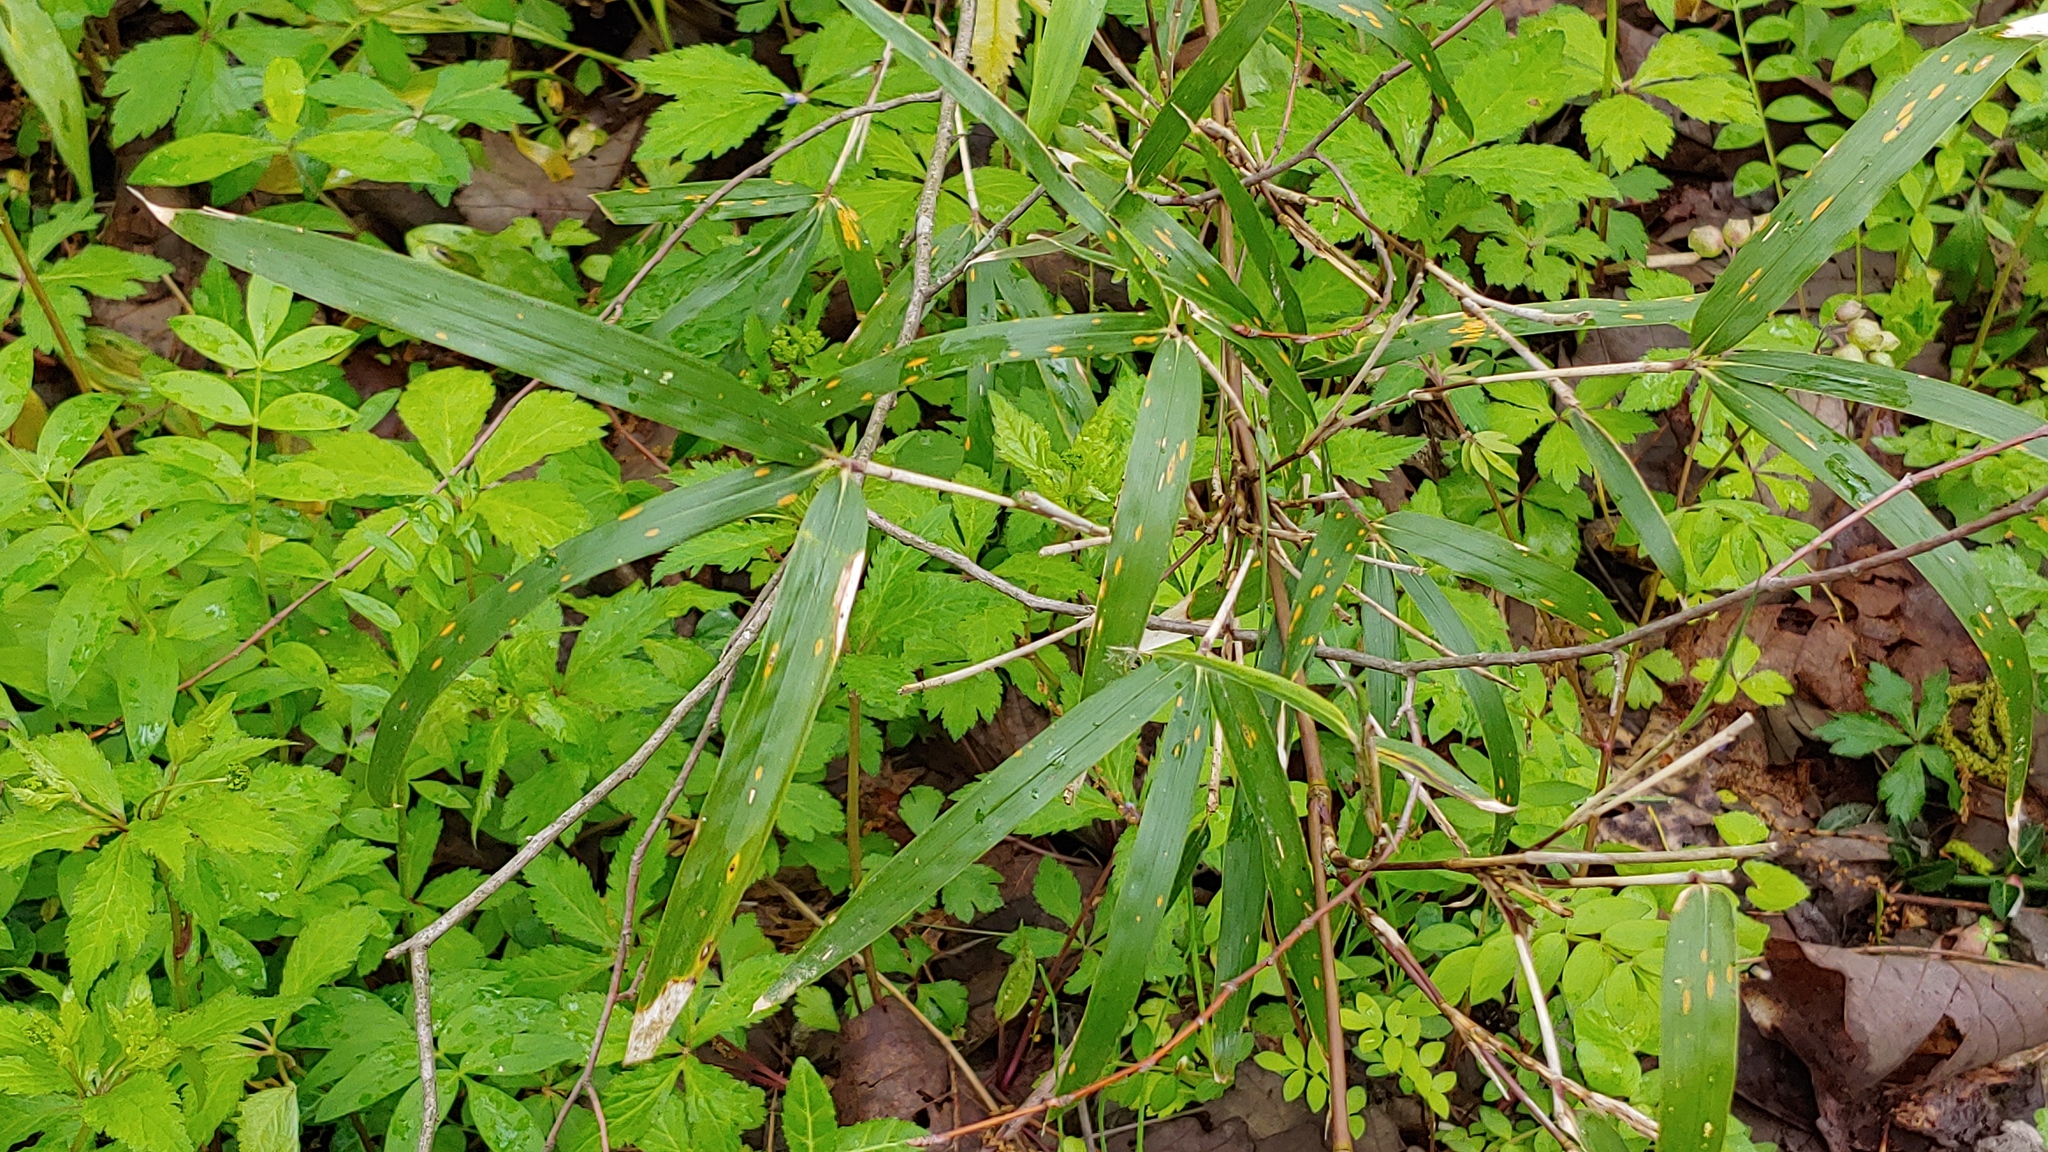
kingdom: Plantae
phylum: Tracheophyta
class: Liliopsida
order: Poales
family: Poaceae
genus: Arundinaria
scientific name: Arundinaria gigantea
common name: Giant cane
